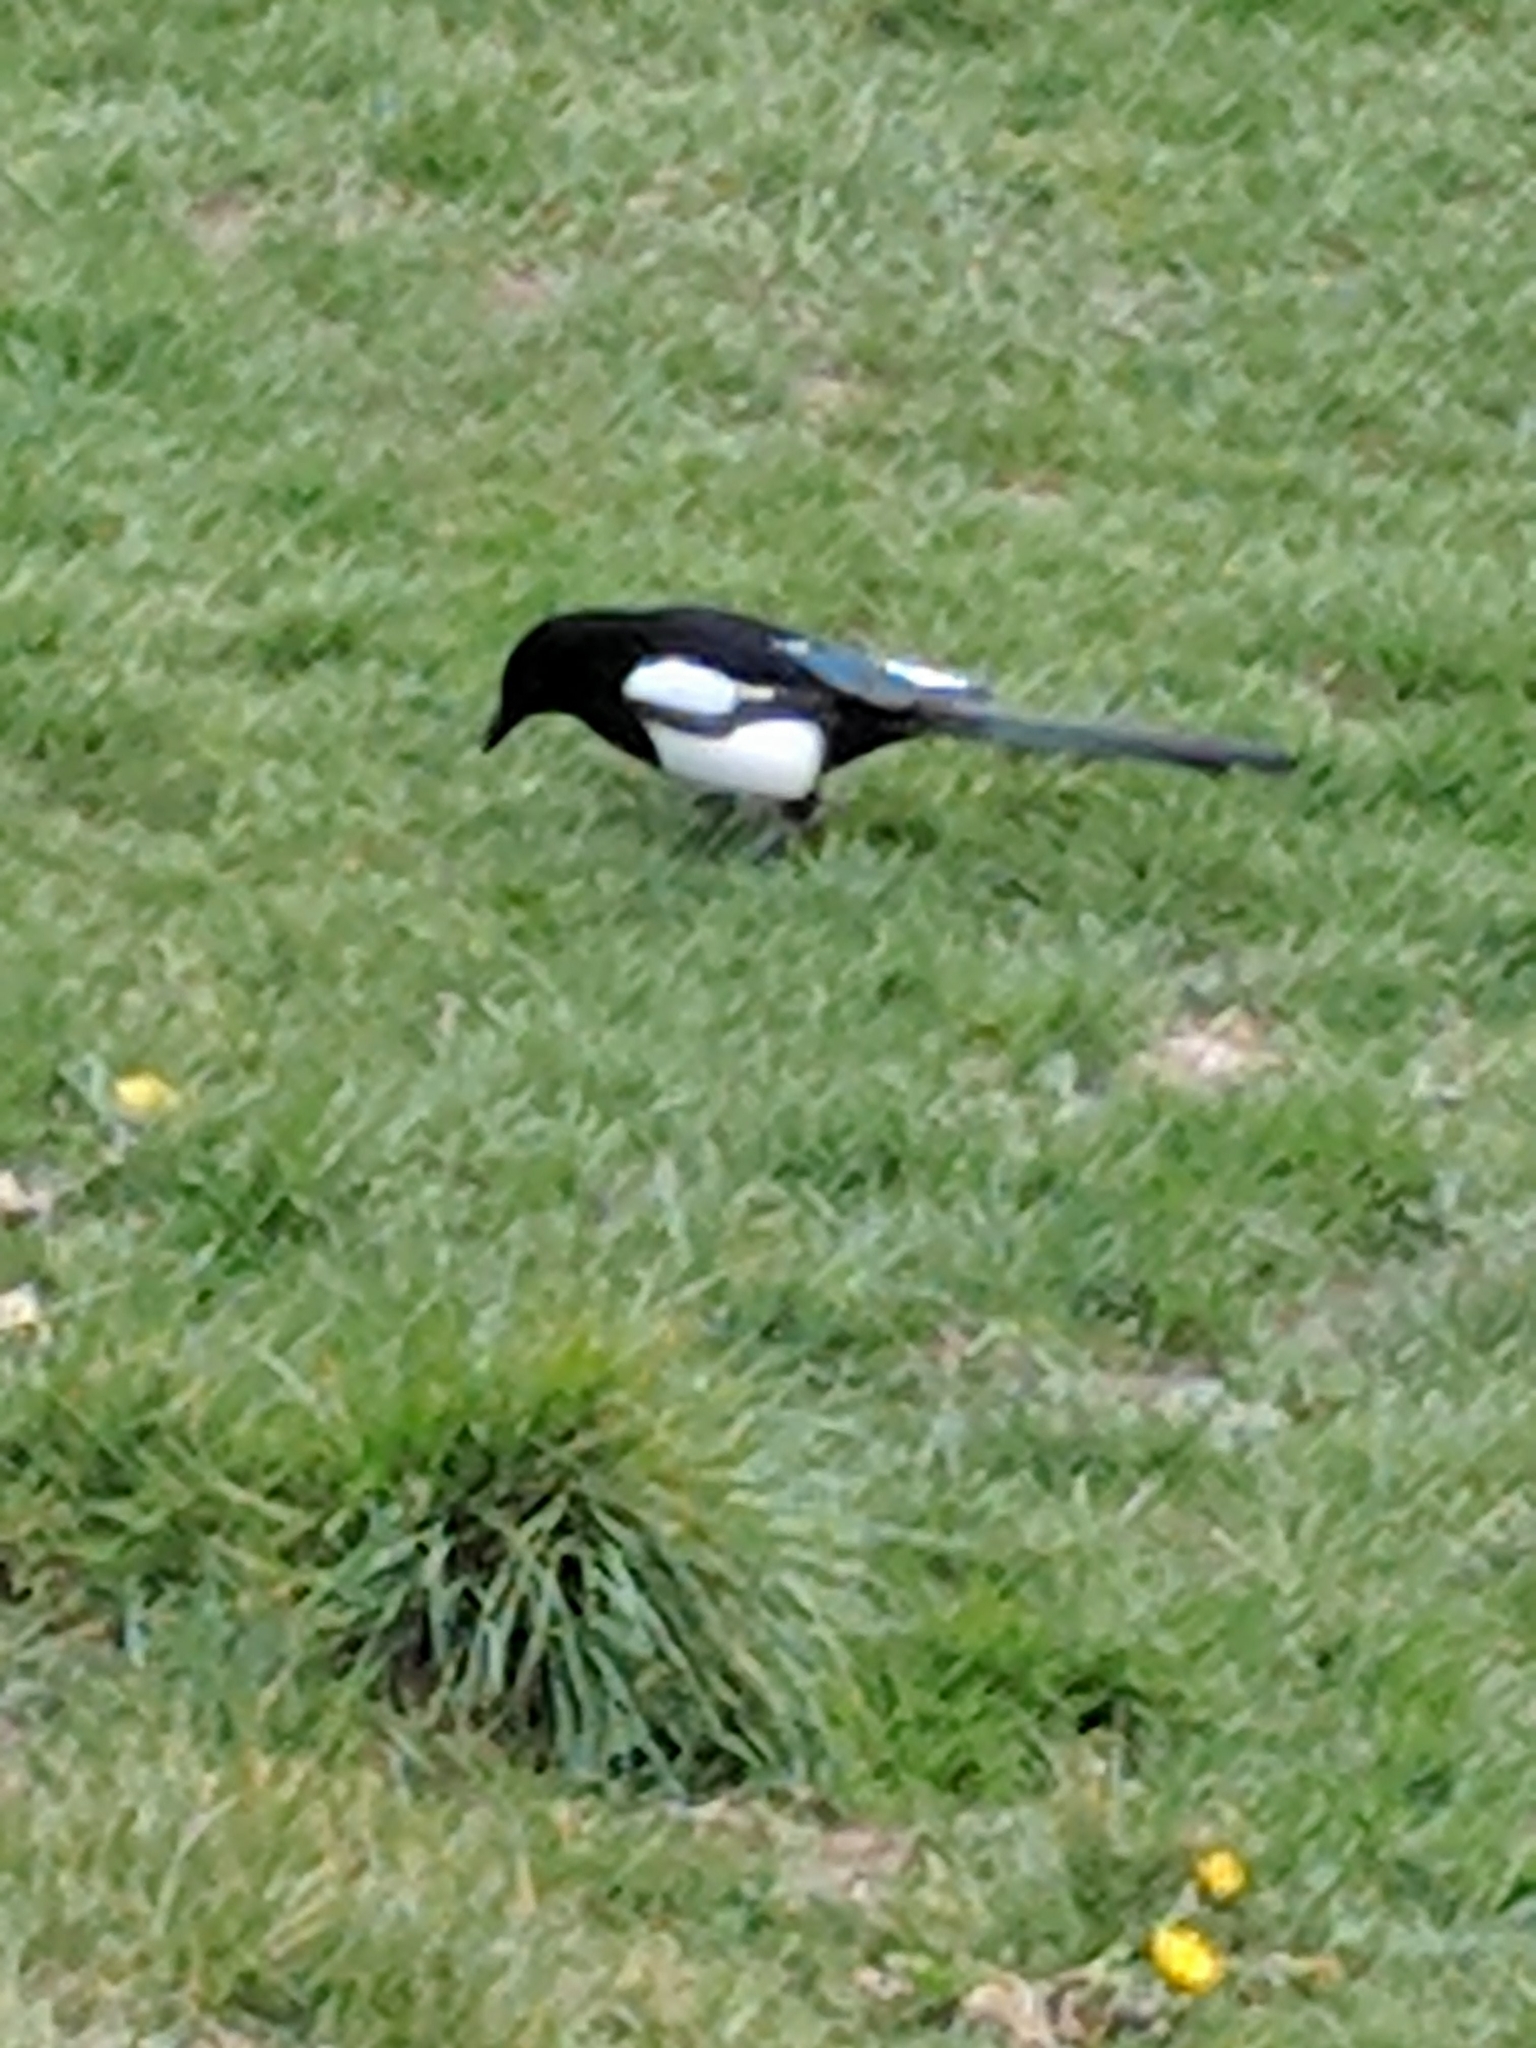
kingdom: Animalia
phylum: Chordata
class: Aves
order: Passeriformes
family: Corvidae
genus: Pica
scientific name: Pica pica
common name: Eurasian magpie
